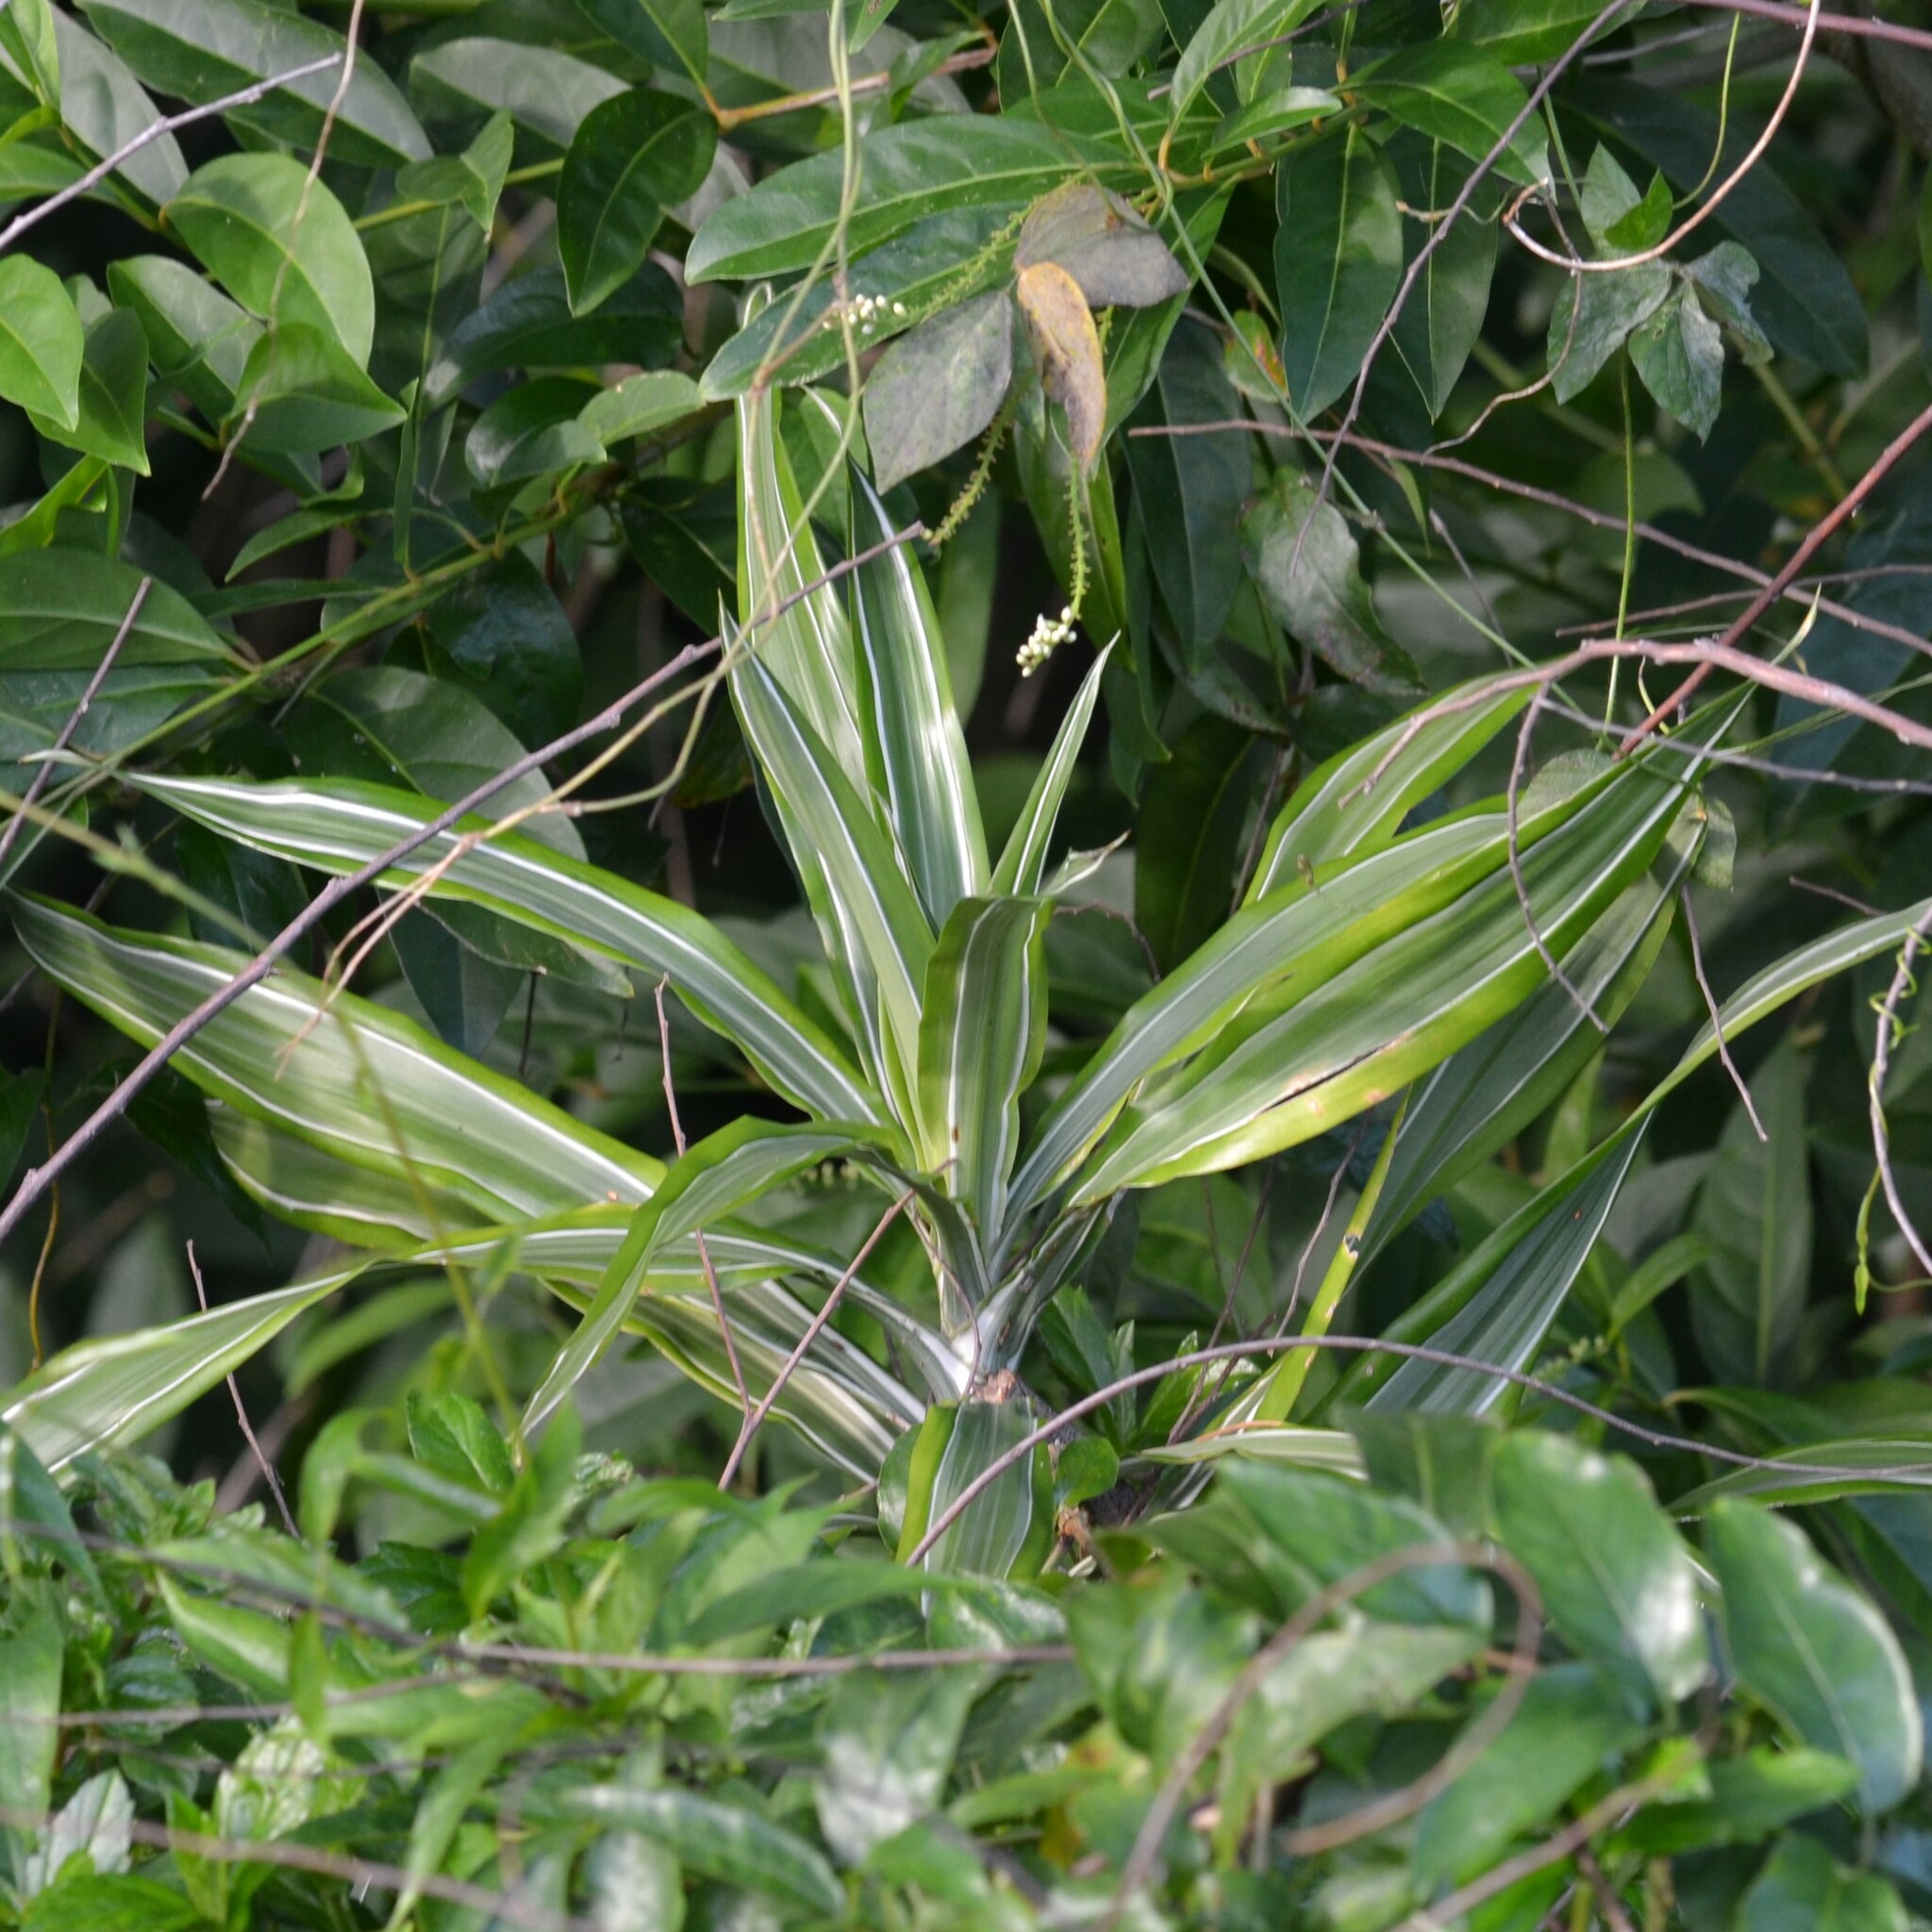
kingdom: Plantae
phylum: Tracheophyta
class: Liliopsida
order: Asparagales
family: Asparagaceae
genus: Dracaena
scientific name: Dracaena fragrans
